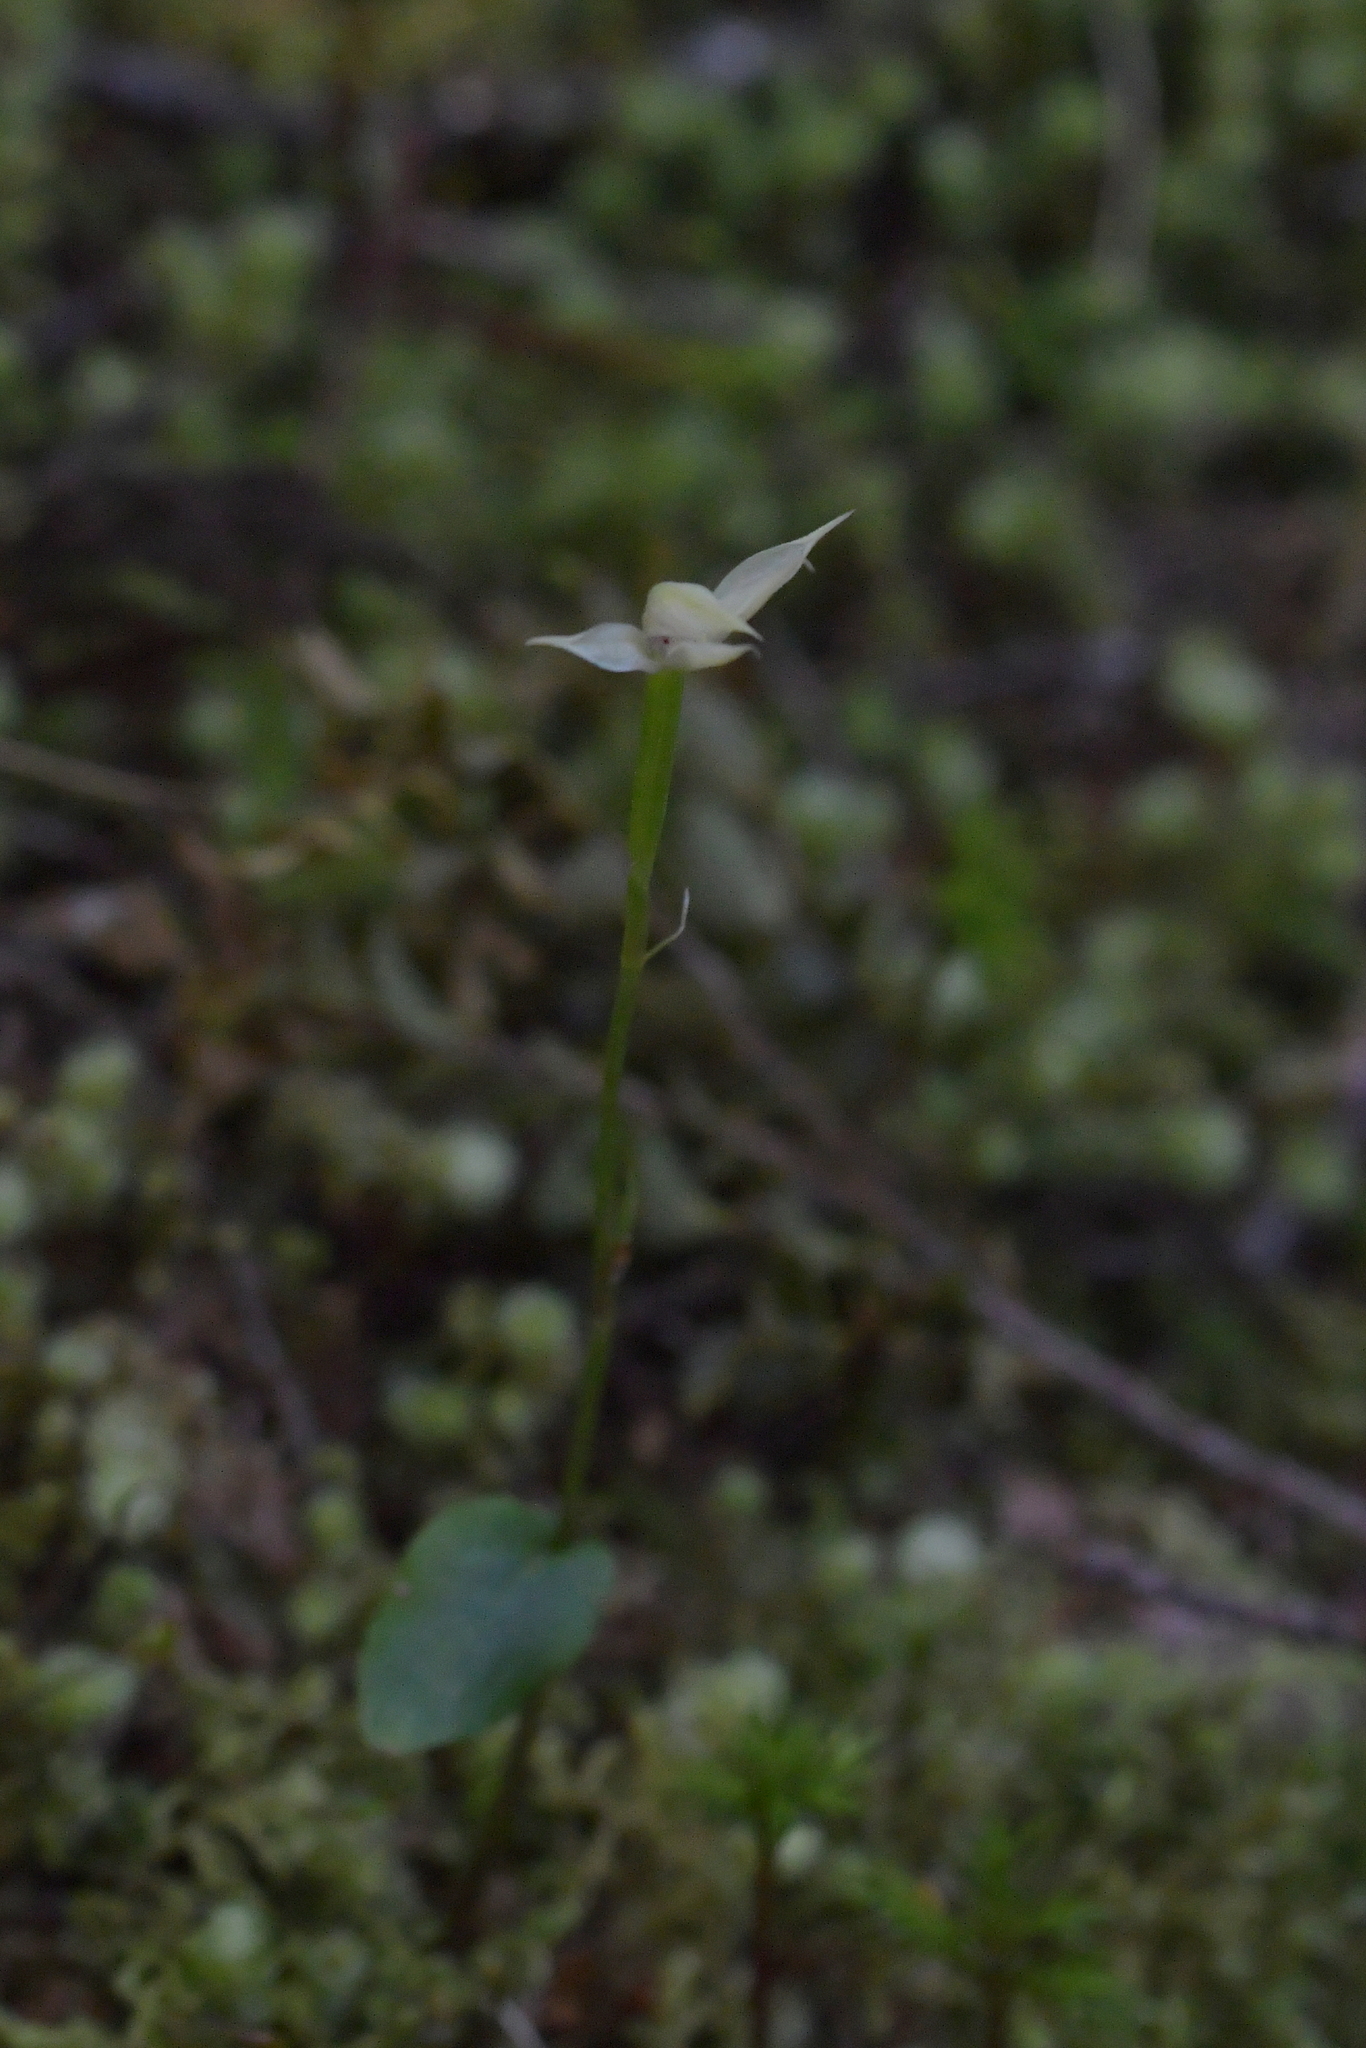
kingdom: Plantae
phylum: Tracheophyta
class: Liliopsida
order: Asparagales
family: Orchidaceae
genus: Adenochilus
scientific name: Adenochilus gracilis
